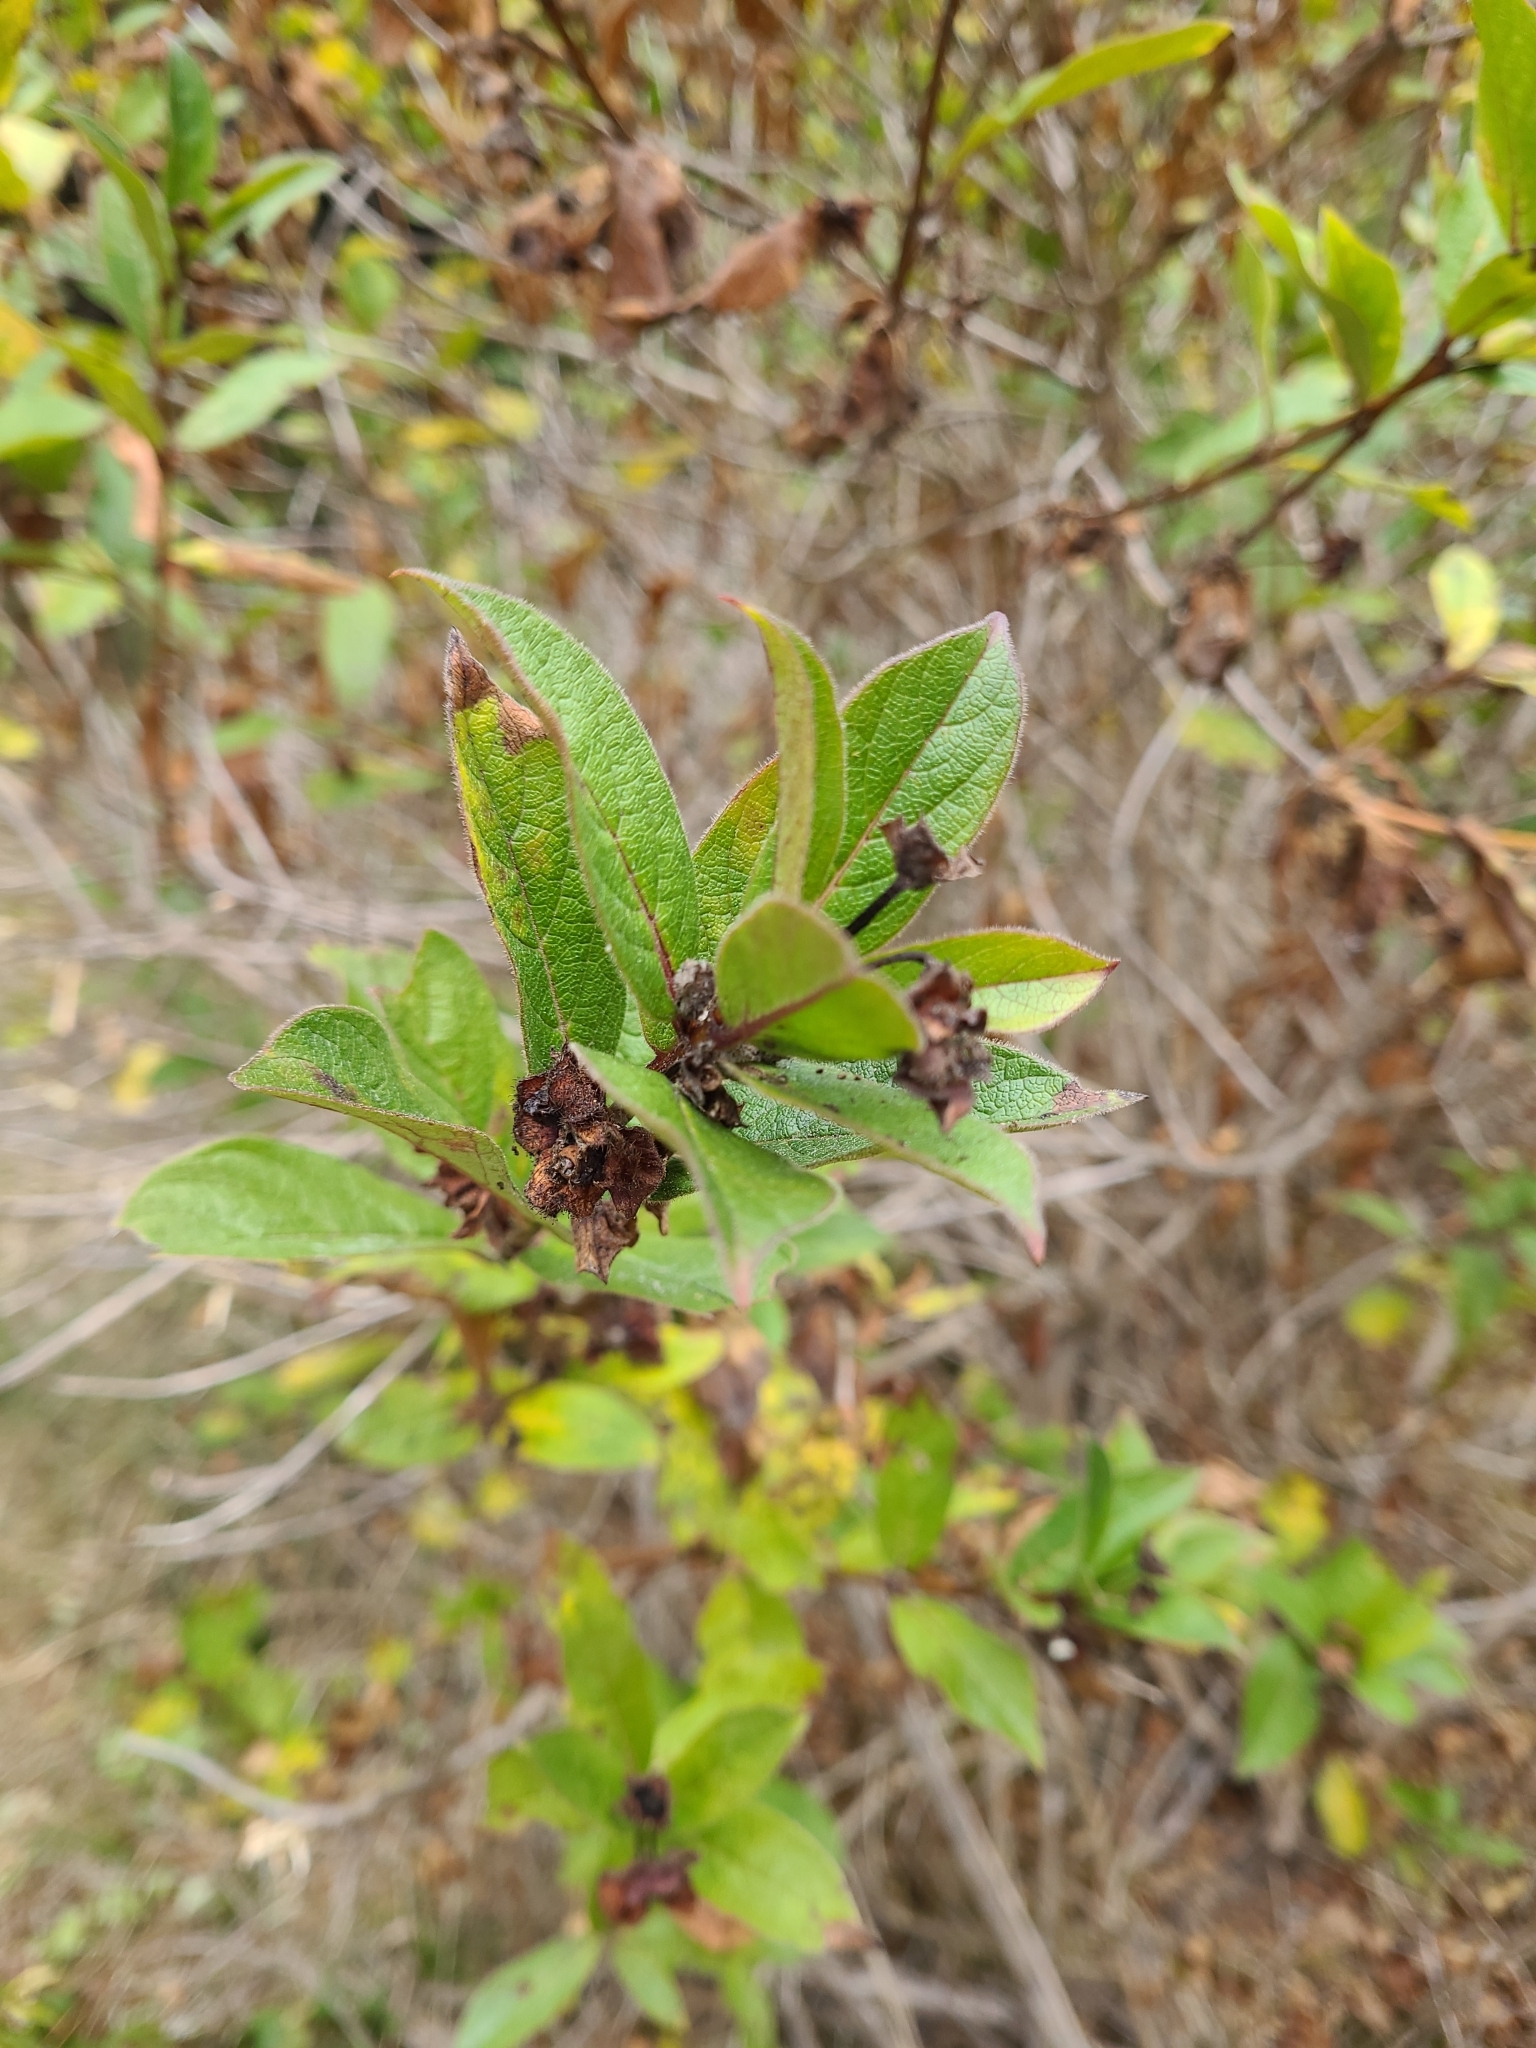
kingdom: Plantae
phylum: Tracheophyta
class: Magnoliopsida
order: Dipsacales
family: Caprifoliaceae
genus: Lonicera
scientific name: Lonicera involucrata
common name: Californian honeysuckle
